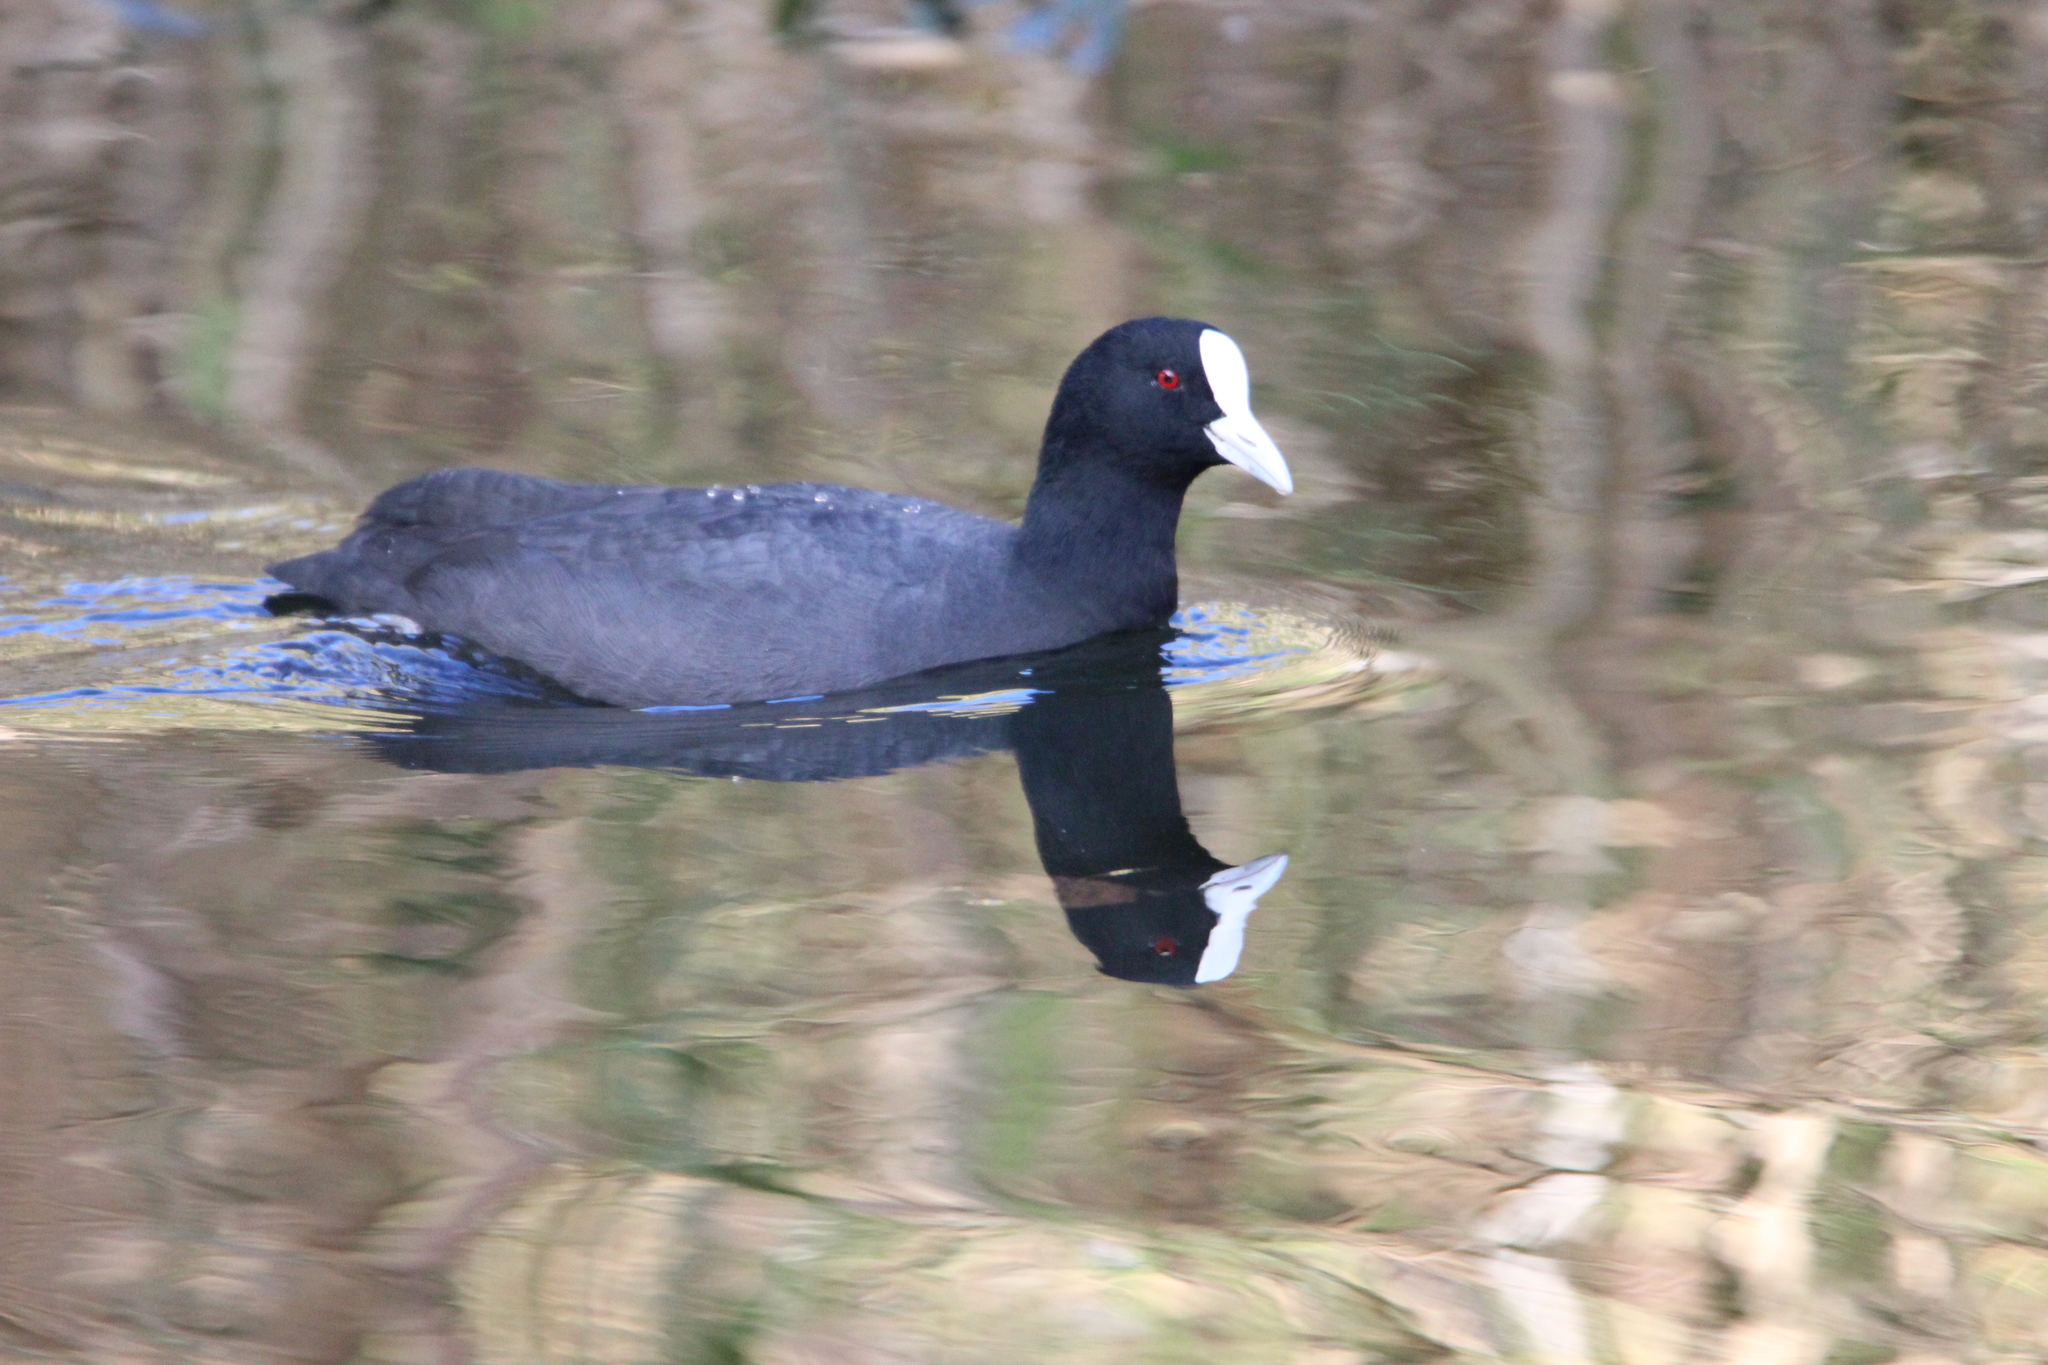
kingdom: Animalia
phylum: Chordata
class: Aves
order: Gruiformes
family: Rallidae
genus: Fulica
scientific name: Fulica atra
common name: Eurasian coot
